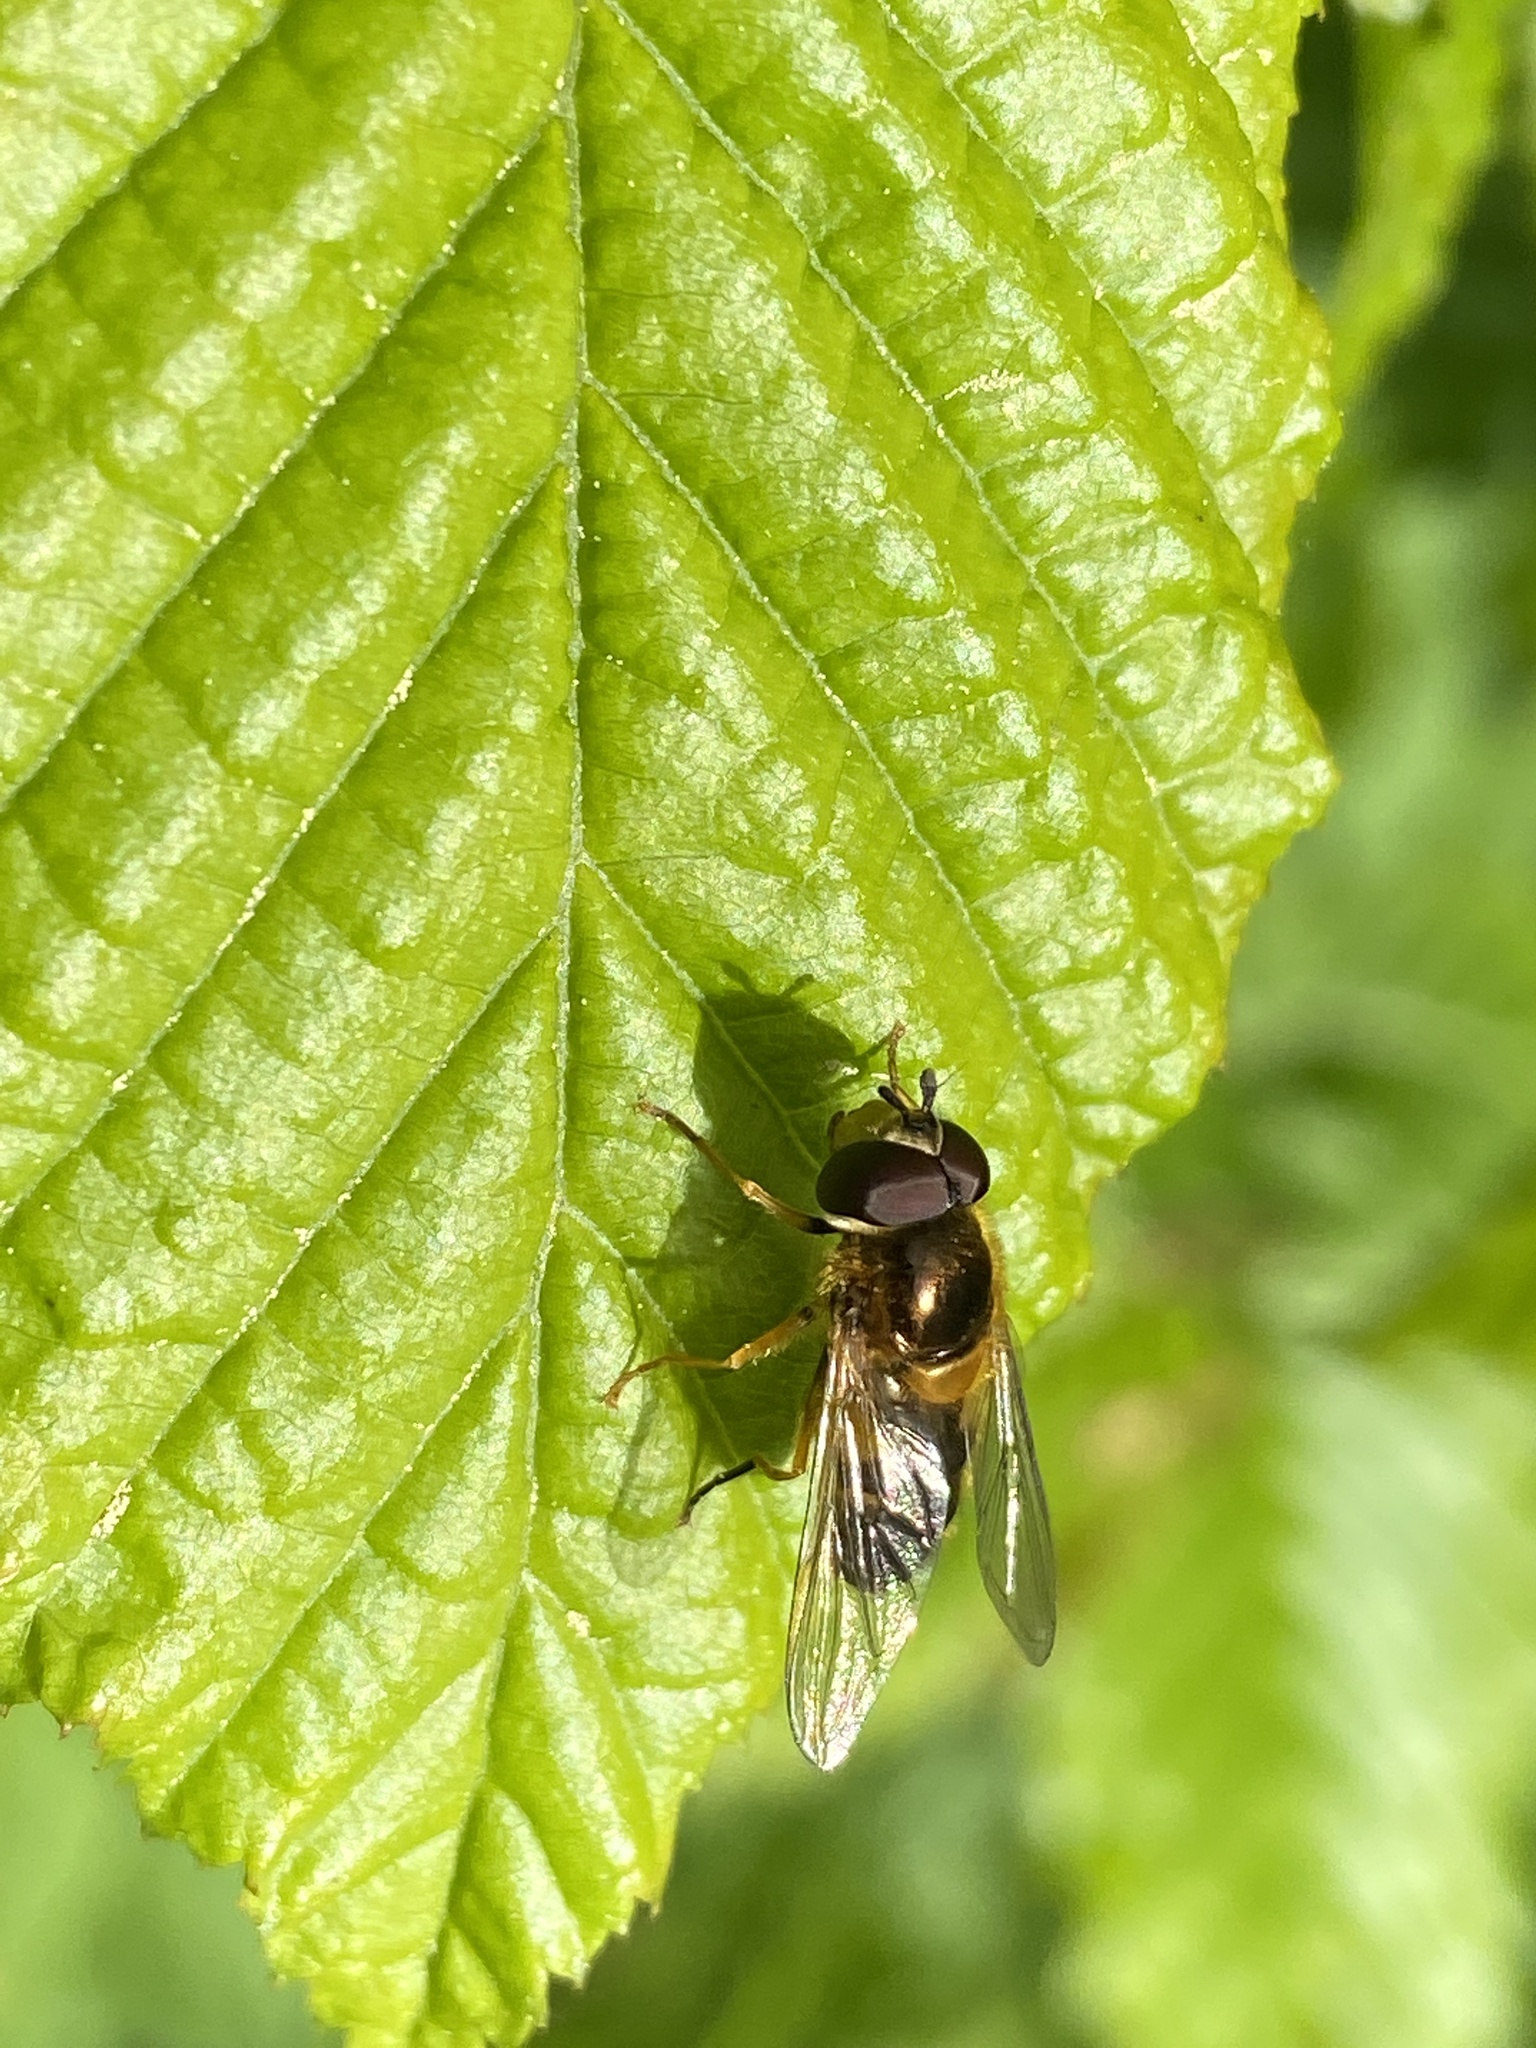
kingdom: Animalia
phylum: Arthropoda
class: Insecta
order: Diptera
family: Syrphidae
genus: Epistrophe
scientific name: Epistrophe eligans
